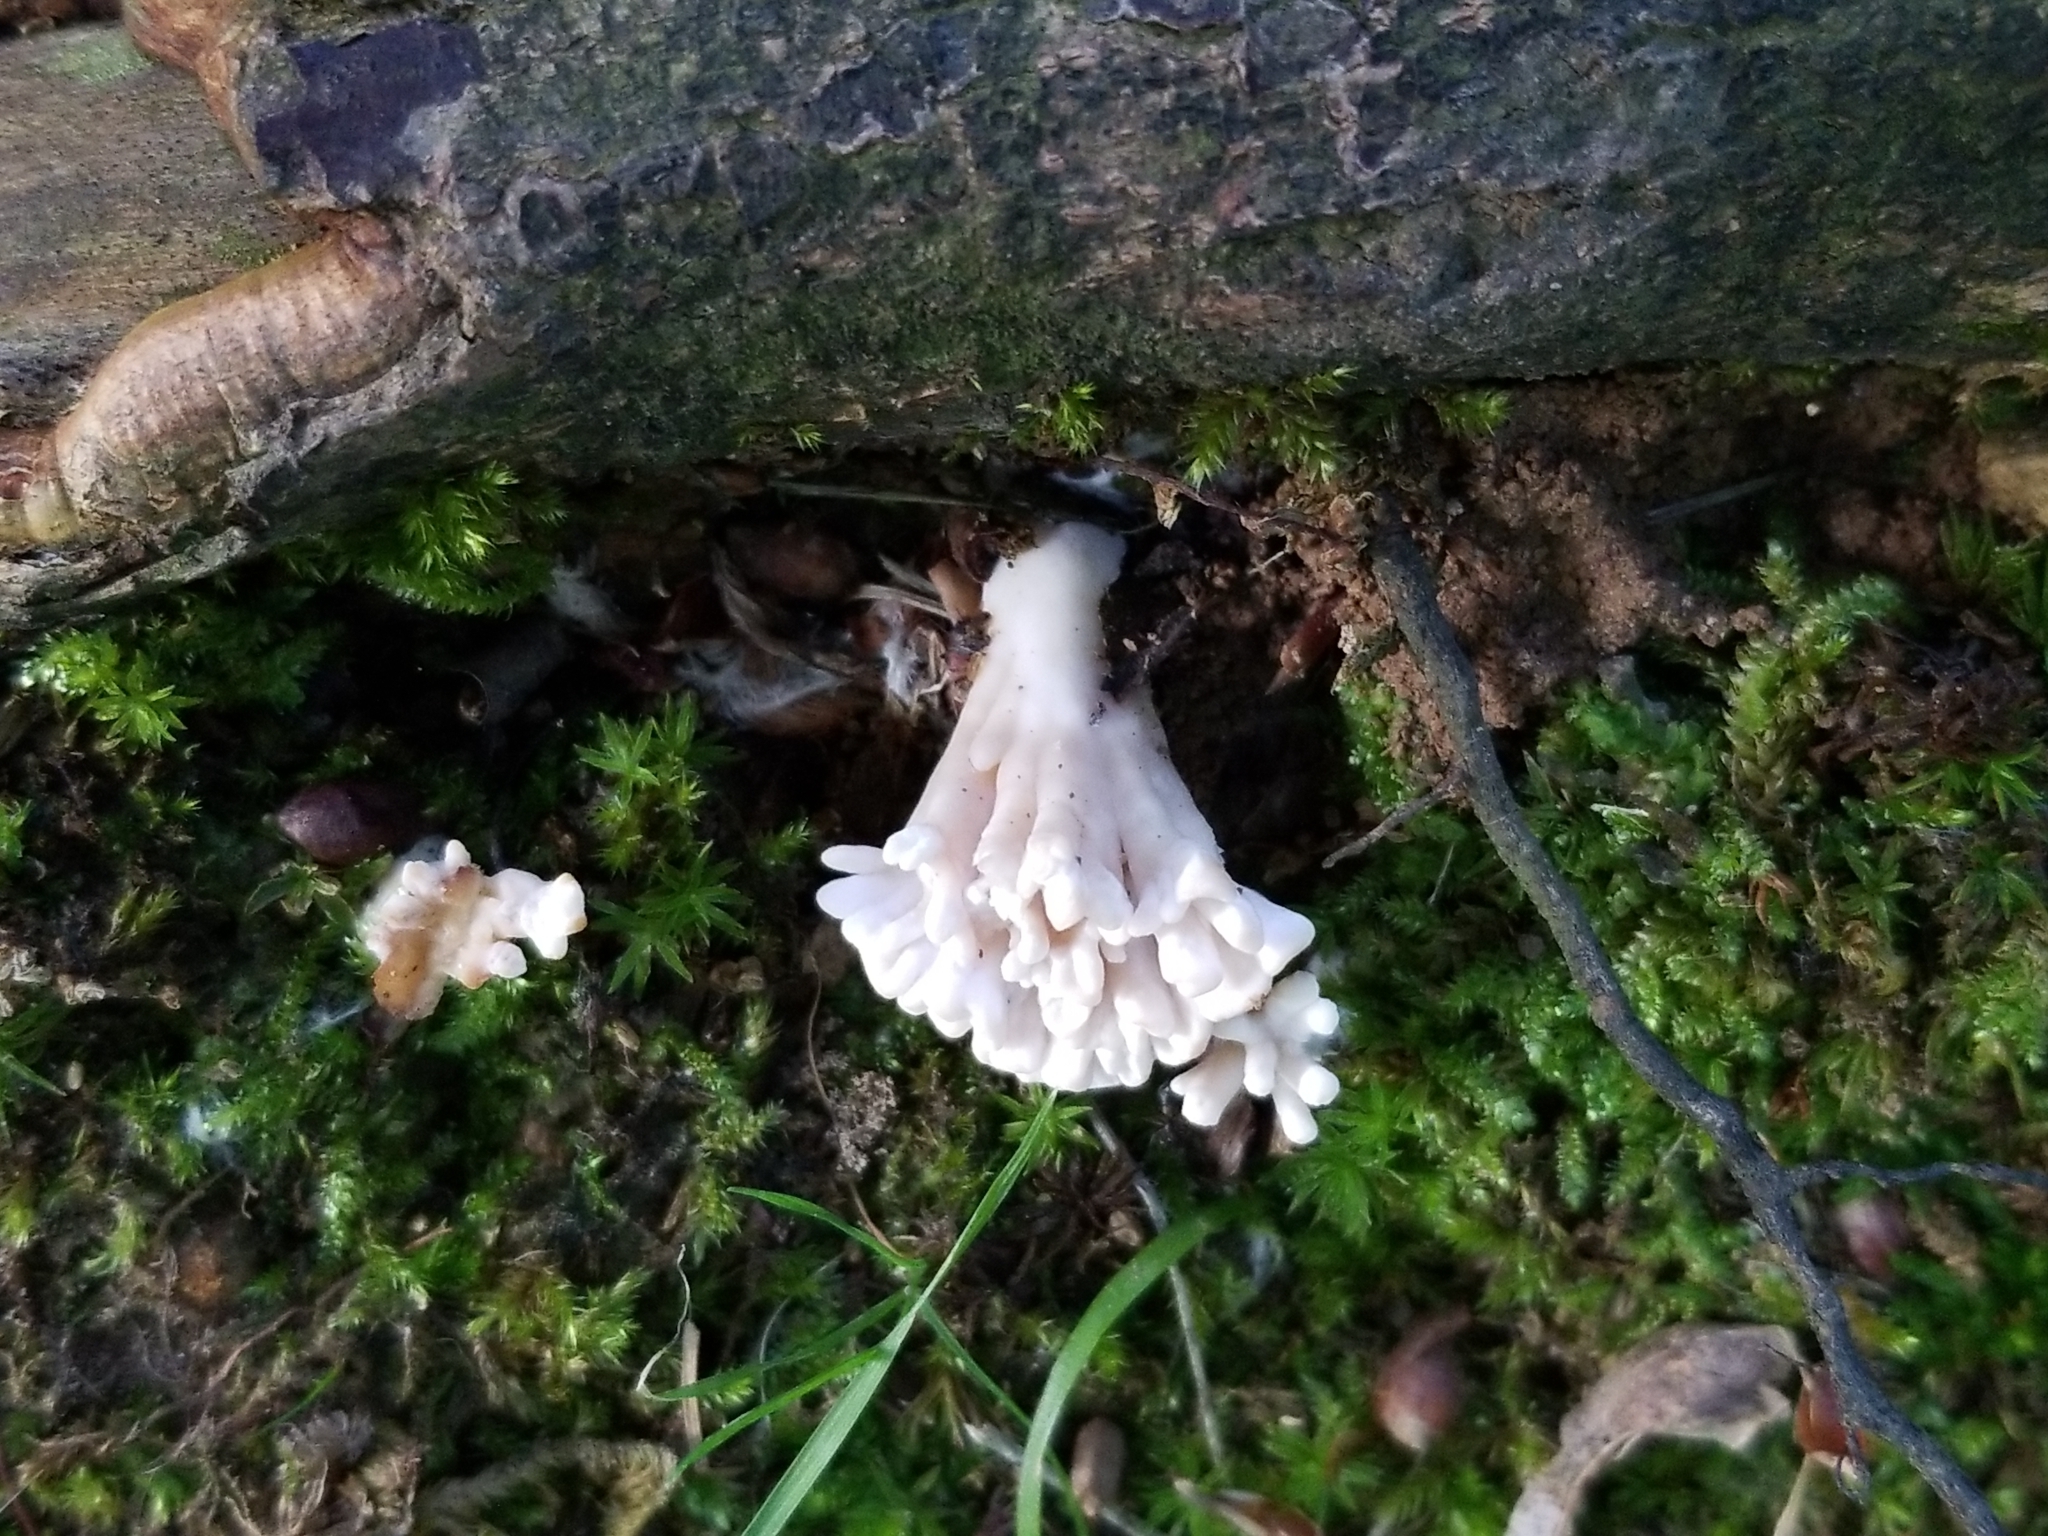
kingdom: Fungi
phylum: Basidiomycota
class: Agaricomycetes
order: Sebacinales
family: Sebacinaceae
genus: Sebacina
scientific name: Sebacina schweinitzii
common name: Jellied false coral fungus
